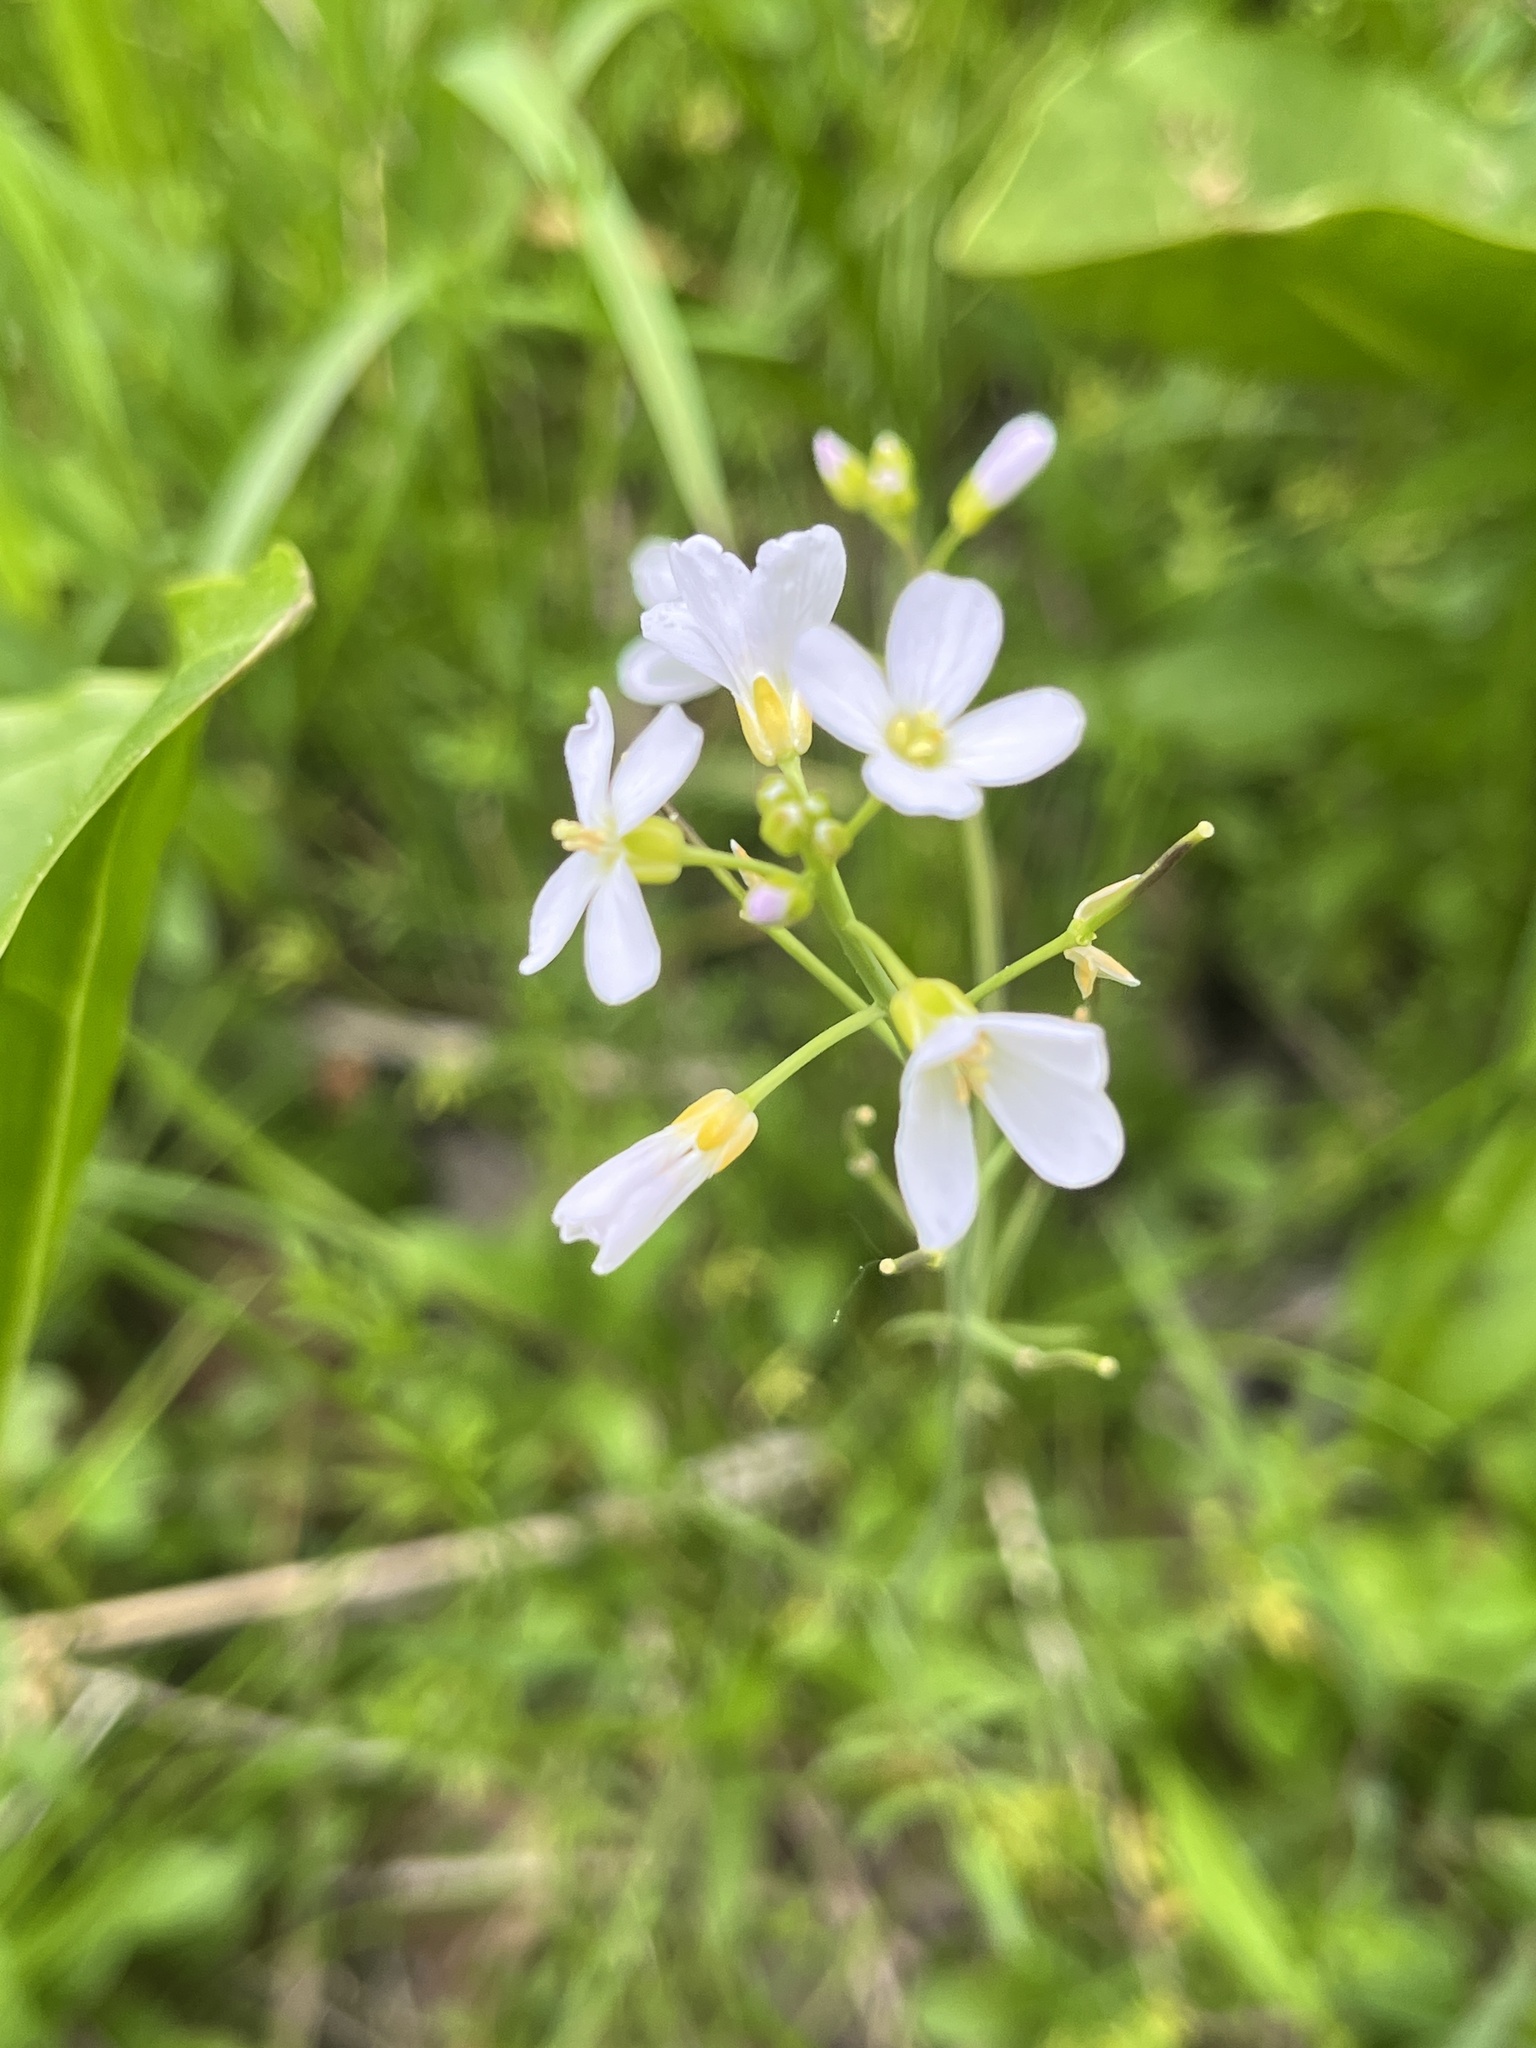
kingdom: Plantae
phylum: Tracheophyta
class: Magnoliopsida
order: Brassicales
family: Brassicaceae
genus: Cardamine
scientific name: Cardamine pratensis
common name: Cuckoo flower
